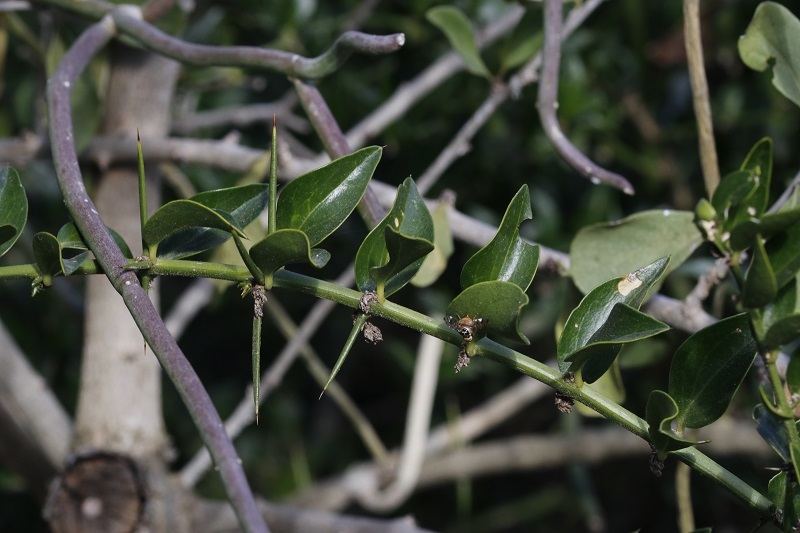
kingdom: Plantae
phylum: Tracheophyta
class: Magnoliopsida
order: Brassicales
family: Salvadoraceae
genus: Azima
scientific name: Azima tetracantha
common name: Needle bush
